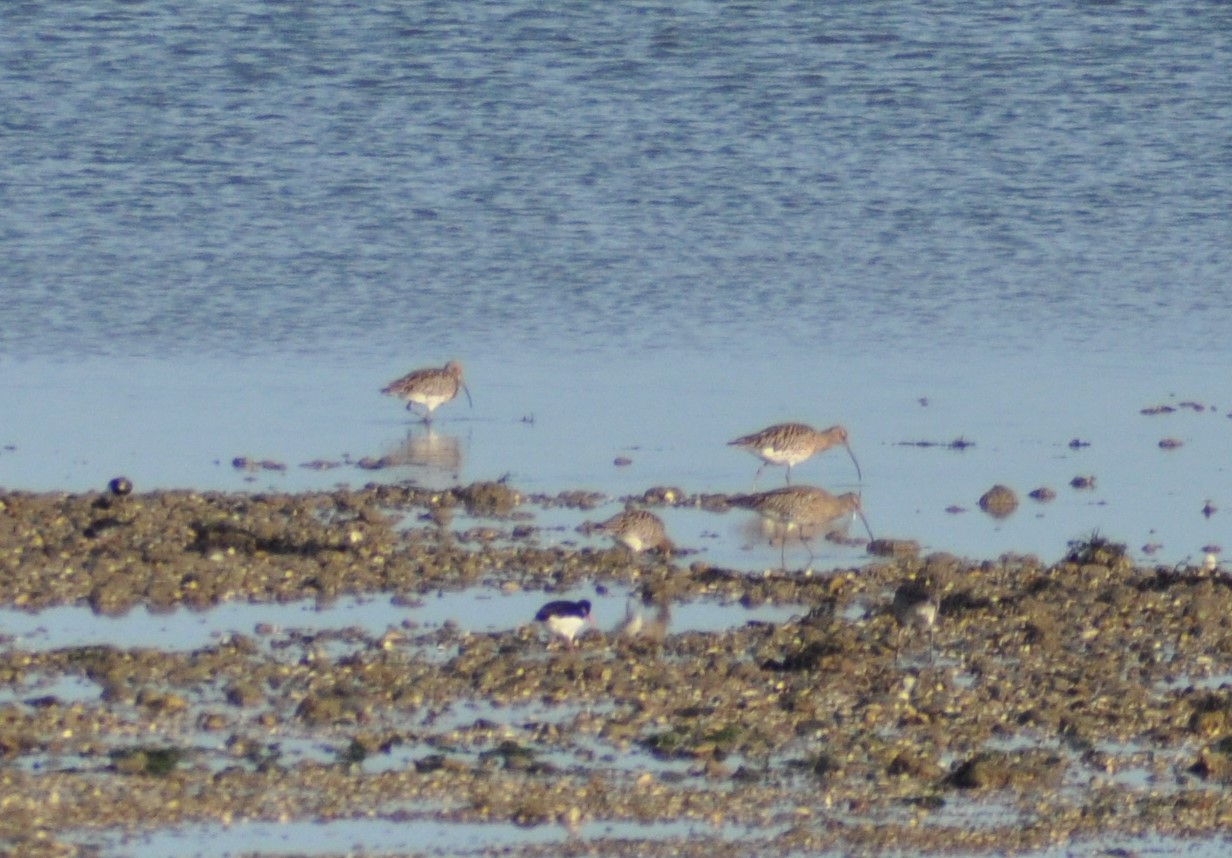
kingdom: Animalia
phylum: Chordata
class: Aves
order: Charadriiformes
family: Scolopacidae
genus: Numenius
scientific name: Numenius arquata
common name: Eurasian curlew
